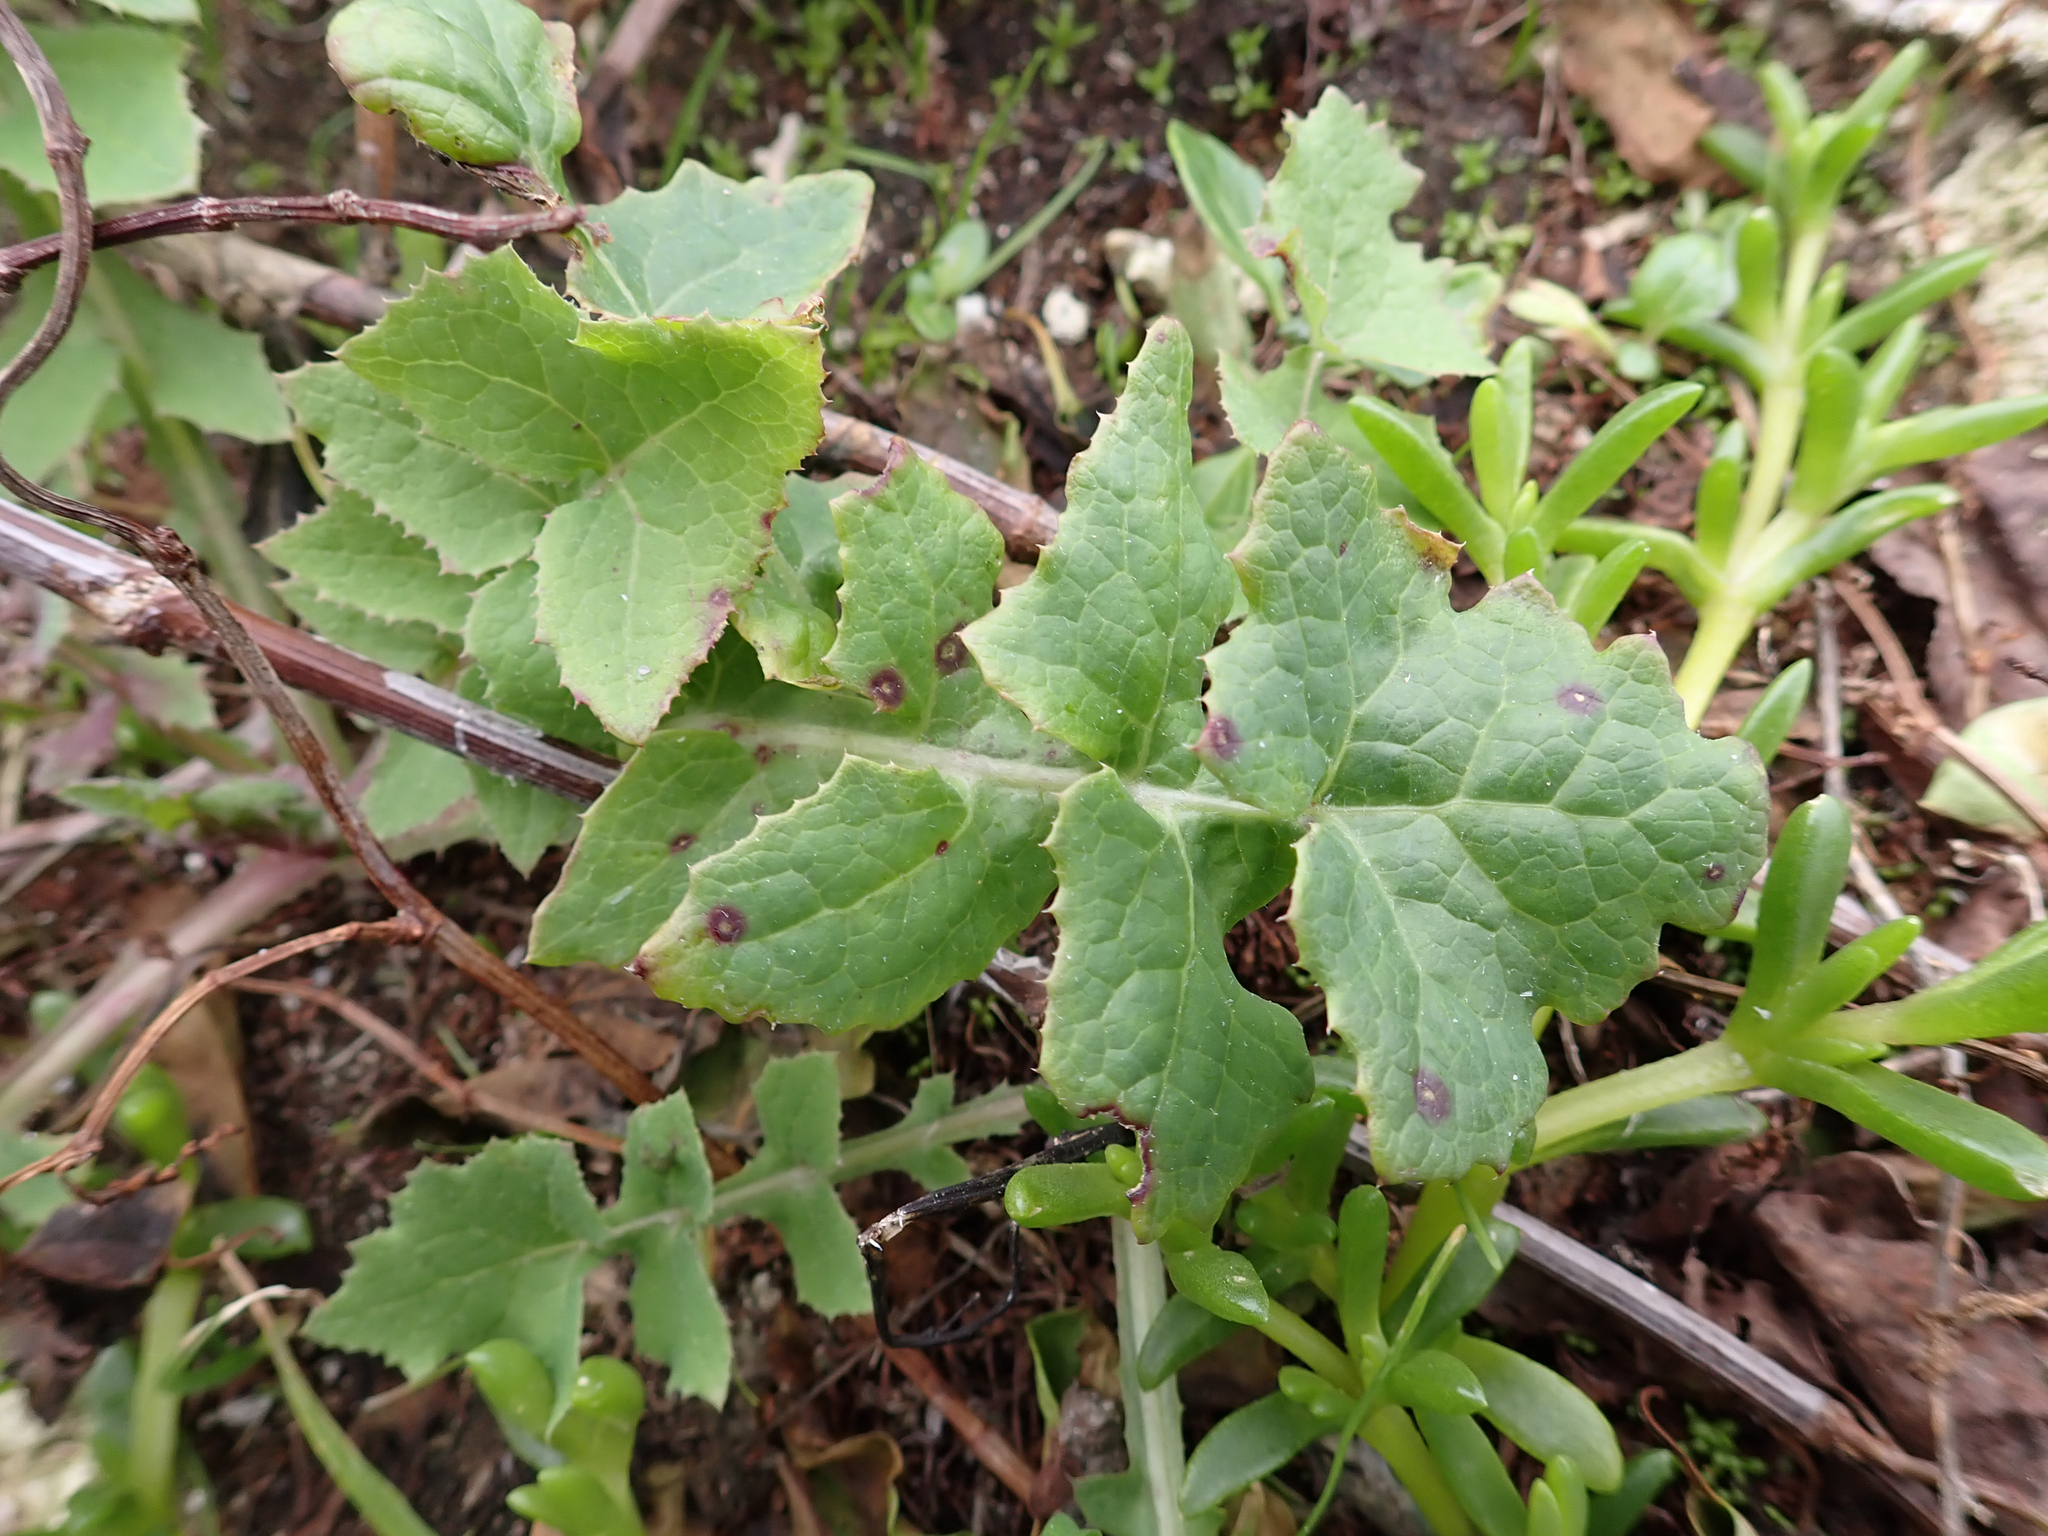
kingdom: Fungi
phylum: Basidiomycota
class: Pucciniomycetes
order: Pucciniales
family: Pucciniaceae
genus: Peristemma
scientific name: Peristemma pseudosphaeria
